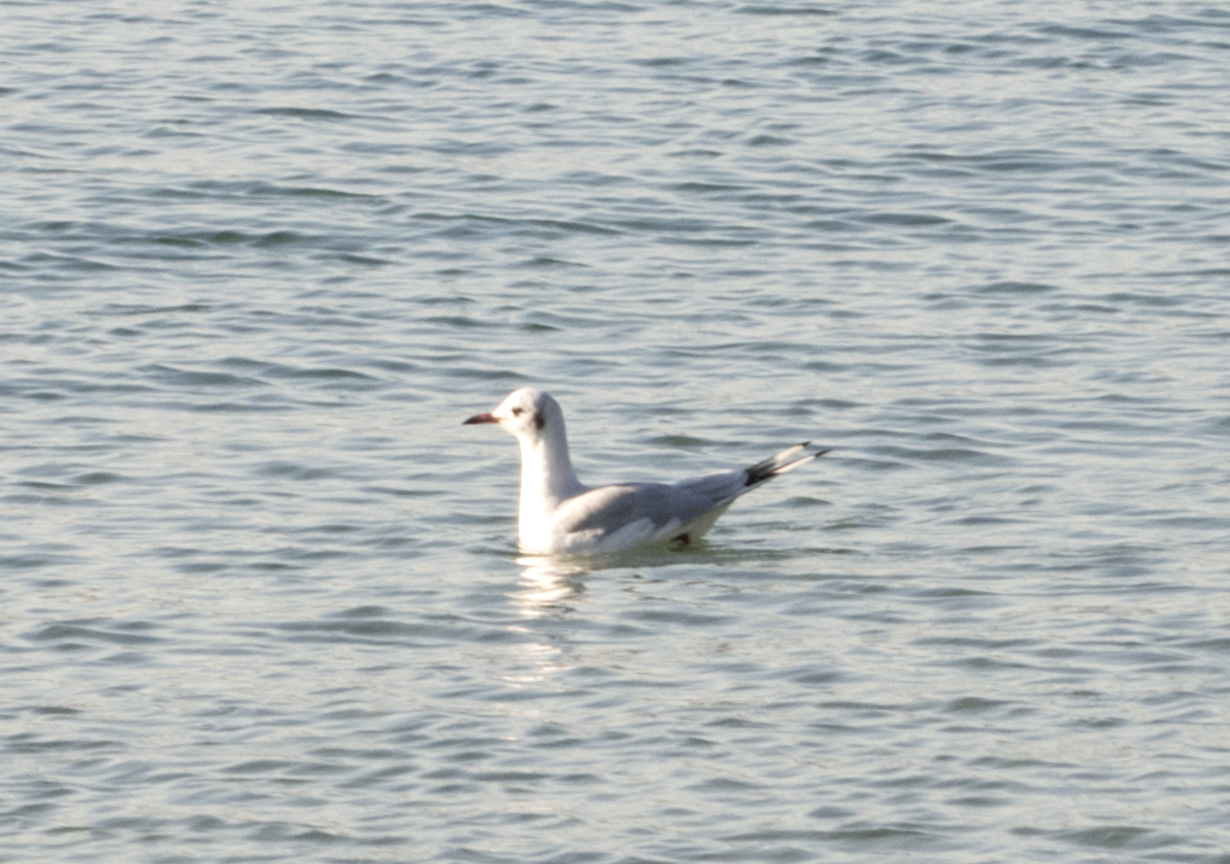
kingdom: Animalia
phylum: Chordata
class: Aves
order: Charadriiformes
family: Laridae
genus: Chroicocephalus
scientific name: Chroicocephalus ridibundus
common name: Black-headed gull
